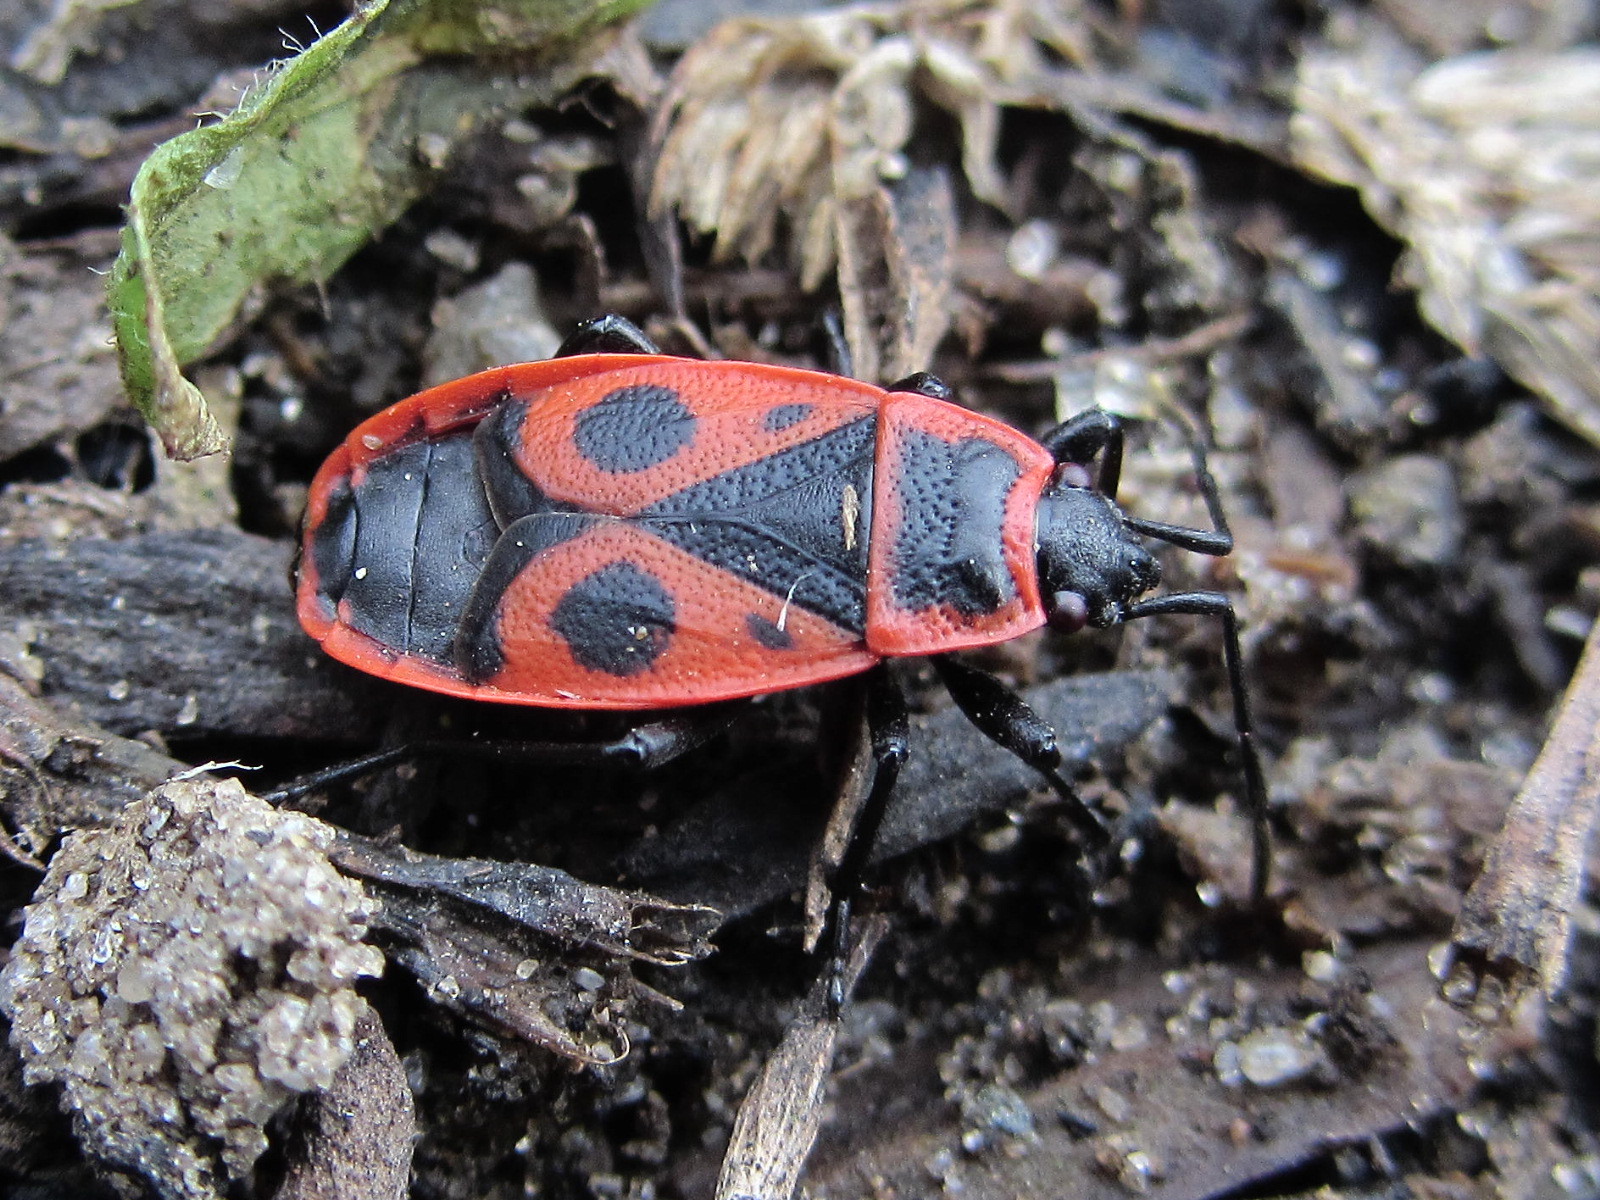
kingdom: Animalia
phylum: Arthropoda
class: Insecta
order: Hemiptera
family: Pyrrhocoridae
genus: Pyrrhocoris
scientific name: Pyrrhocoris apterus
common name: Firebug
